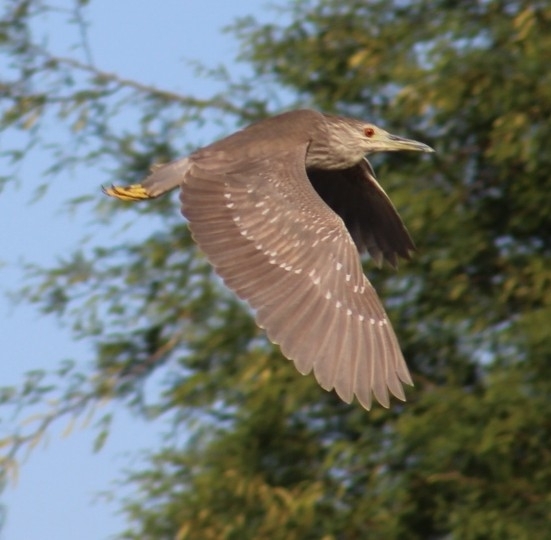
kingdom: Animalia
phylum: Chordata
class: Aves
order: Pelecaniformes
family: Ardeidae
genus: Nycticorax
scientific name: Nycticorax nycticorax
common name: Black-crowned night heron
